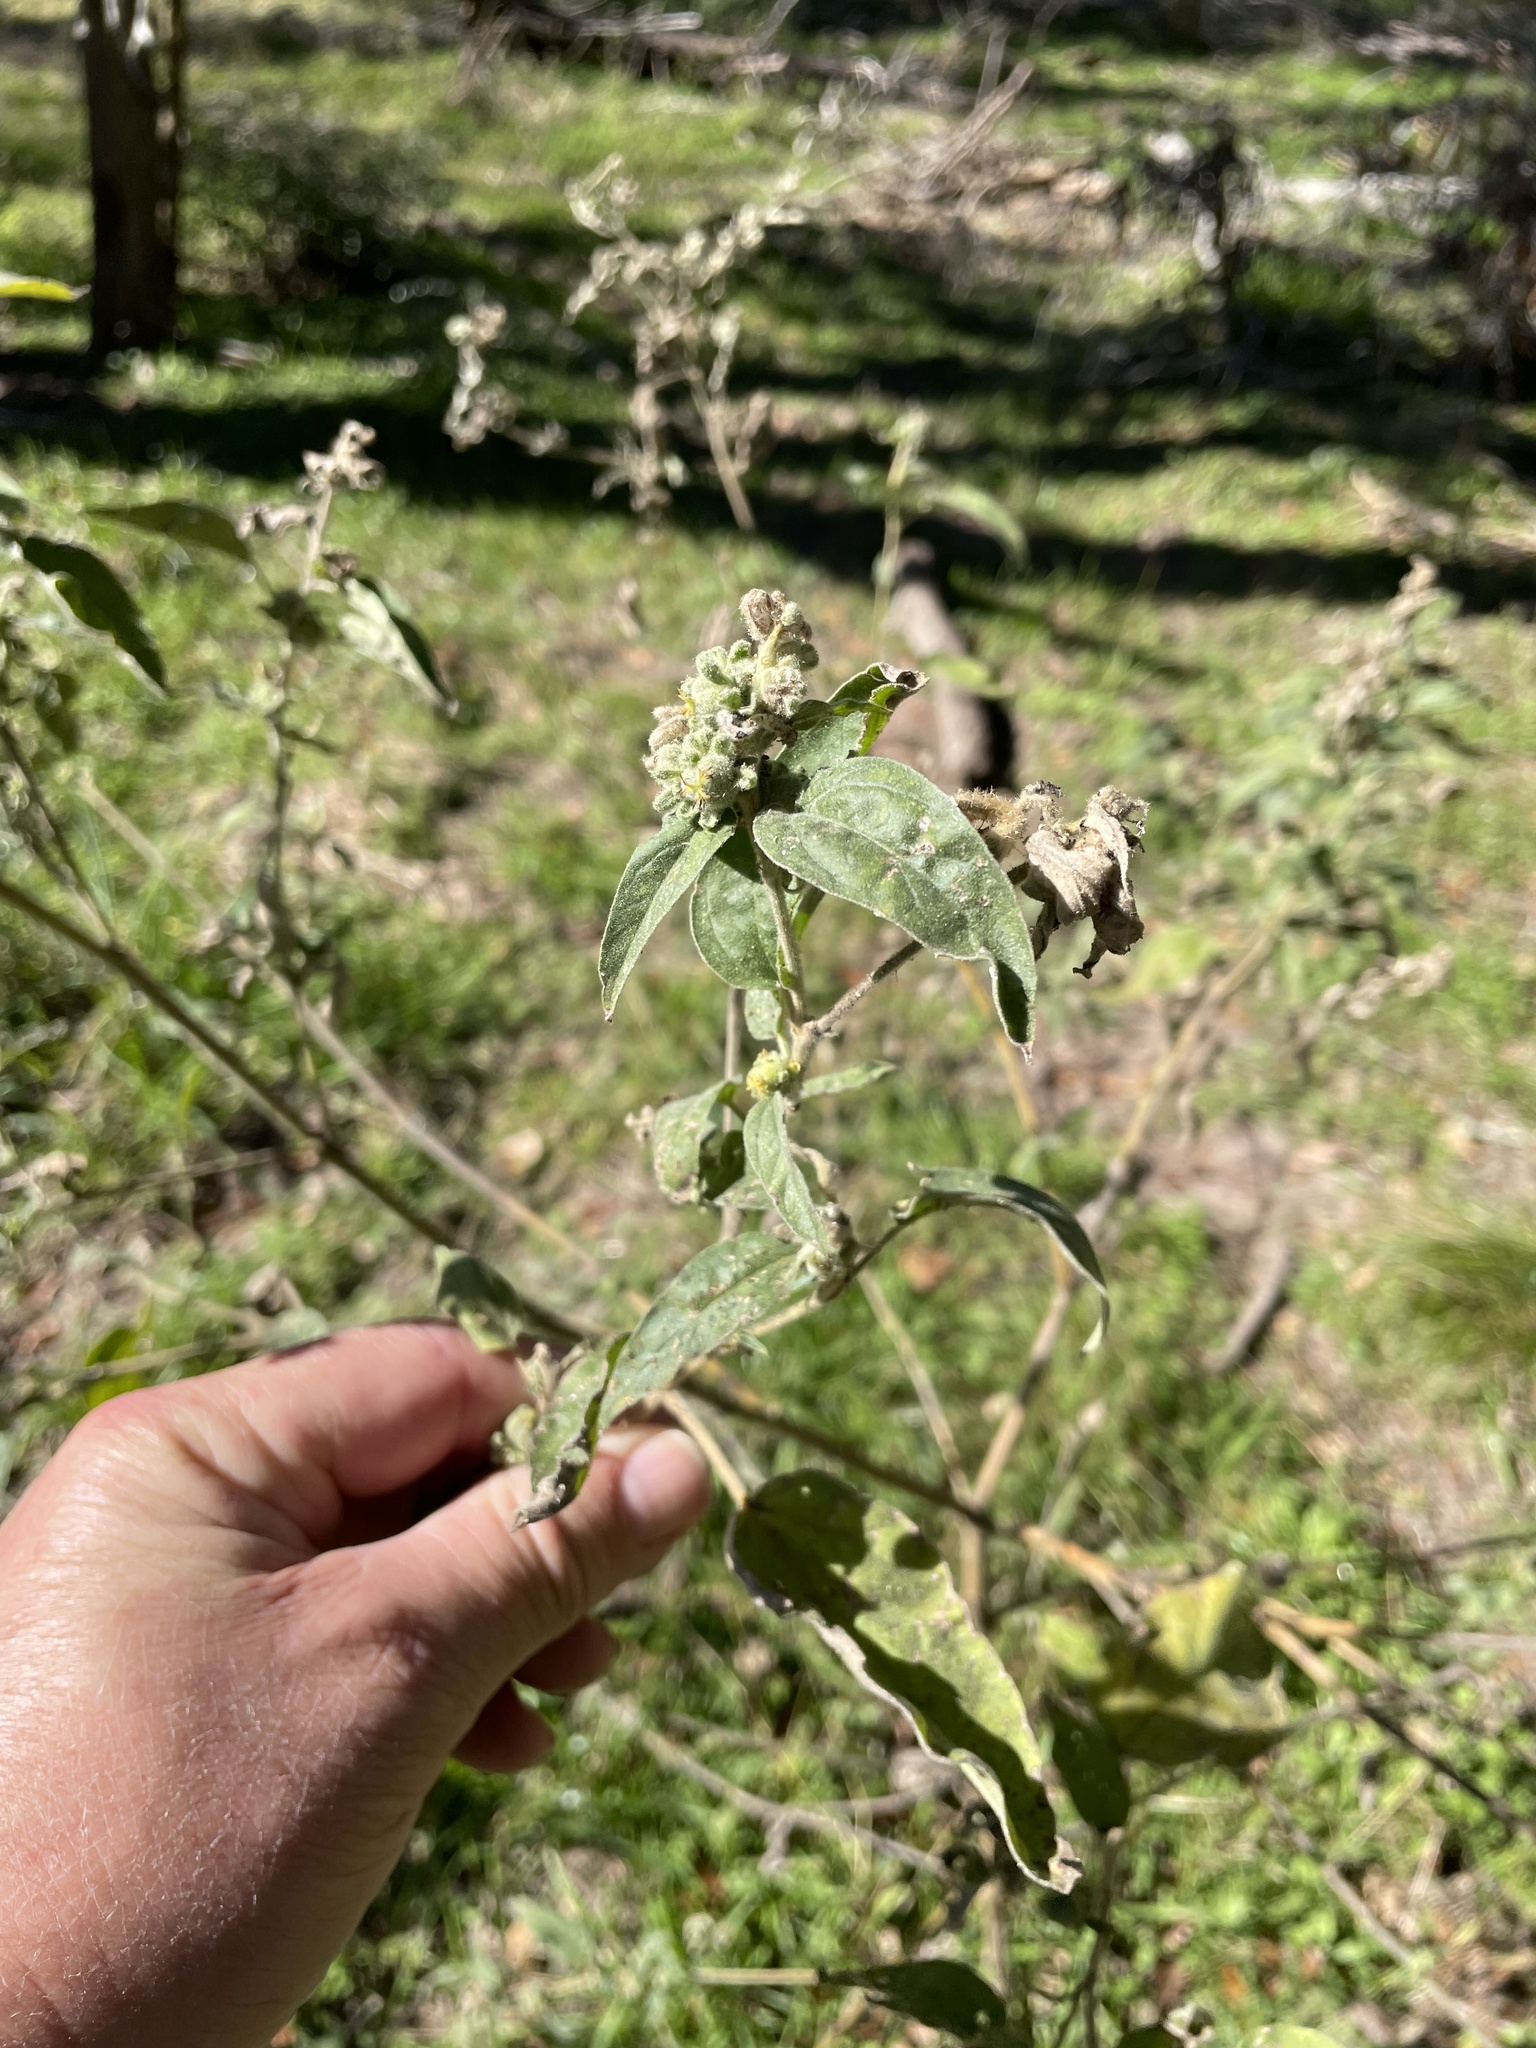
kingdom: Plantae
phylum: Tracheophyta
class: Magnoliopsida
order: Malpighiales
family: Euphorbiaceae
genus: Croton
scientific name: Croton lindheimeri
